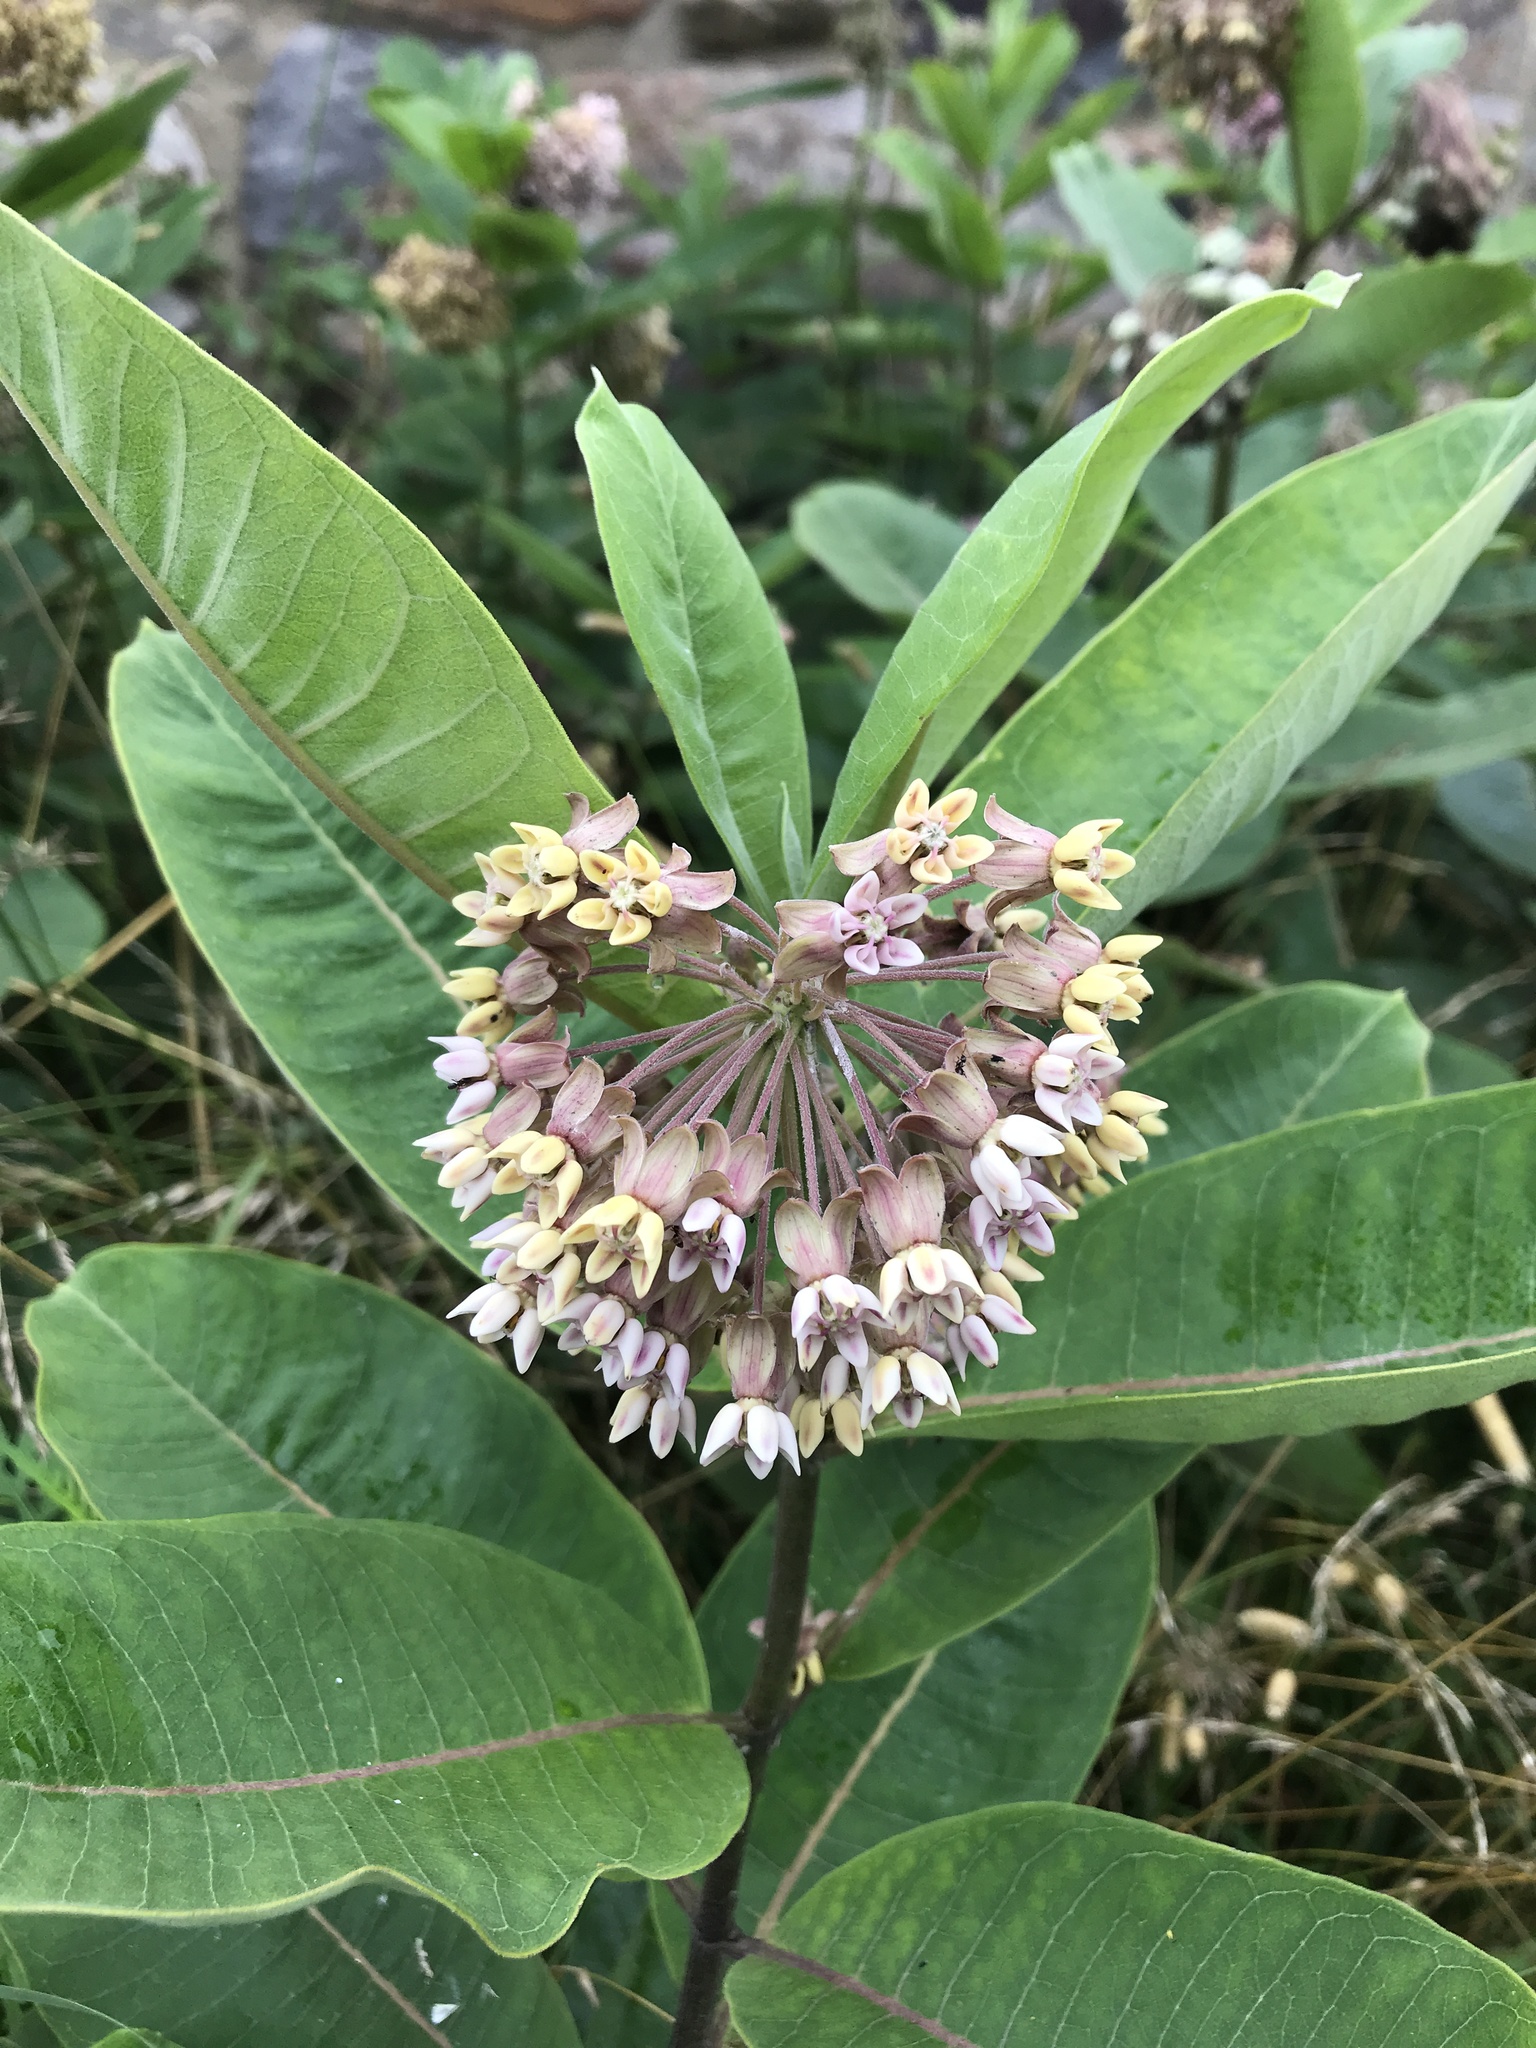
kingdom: Plantae
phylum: Tracheophyta
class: Magnoliopsida
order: Gentianales
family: Apocynaceae
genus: Asclepias
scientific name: Asclepias syriaca
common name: Common milkweed
